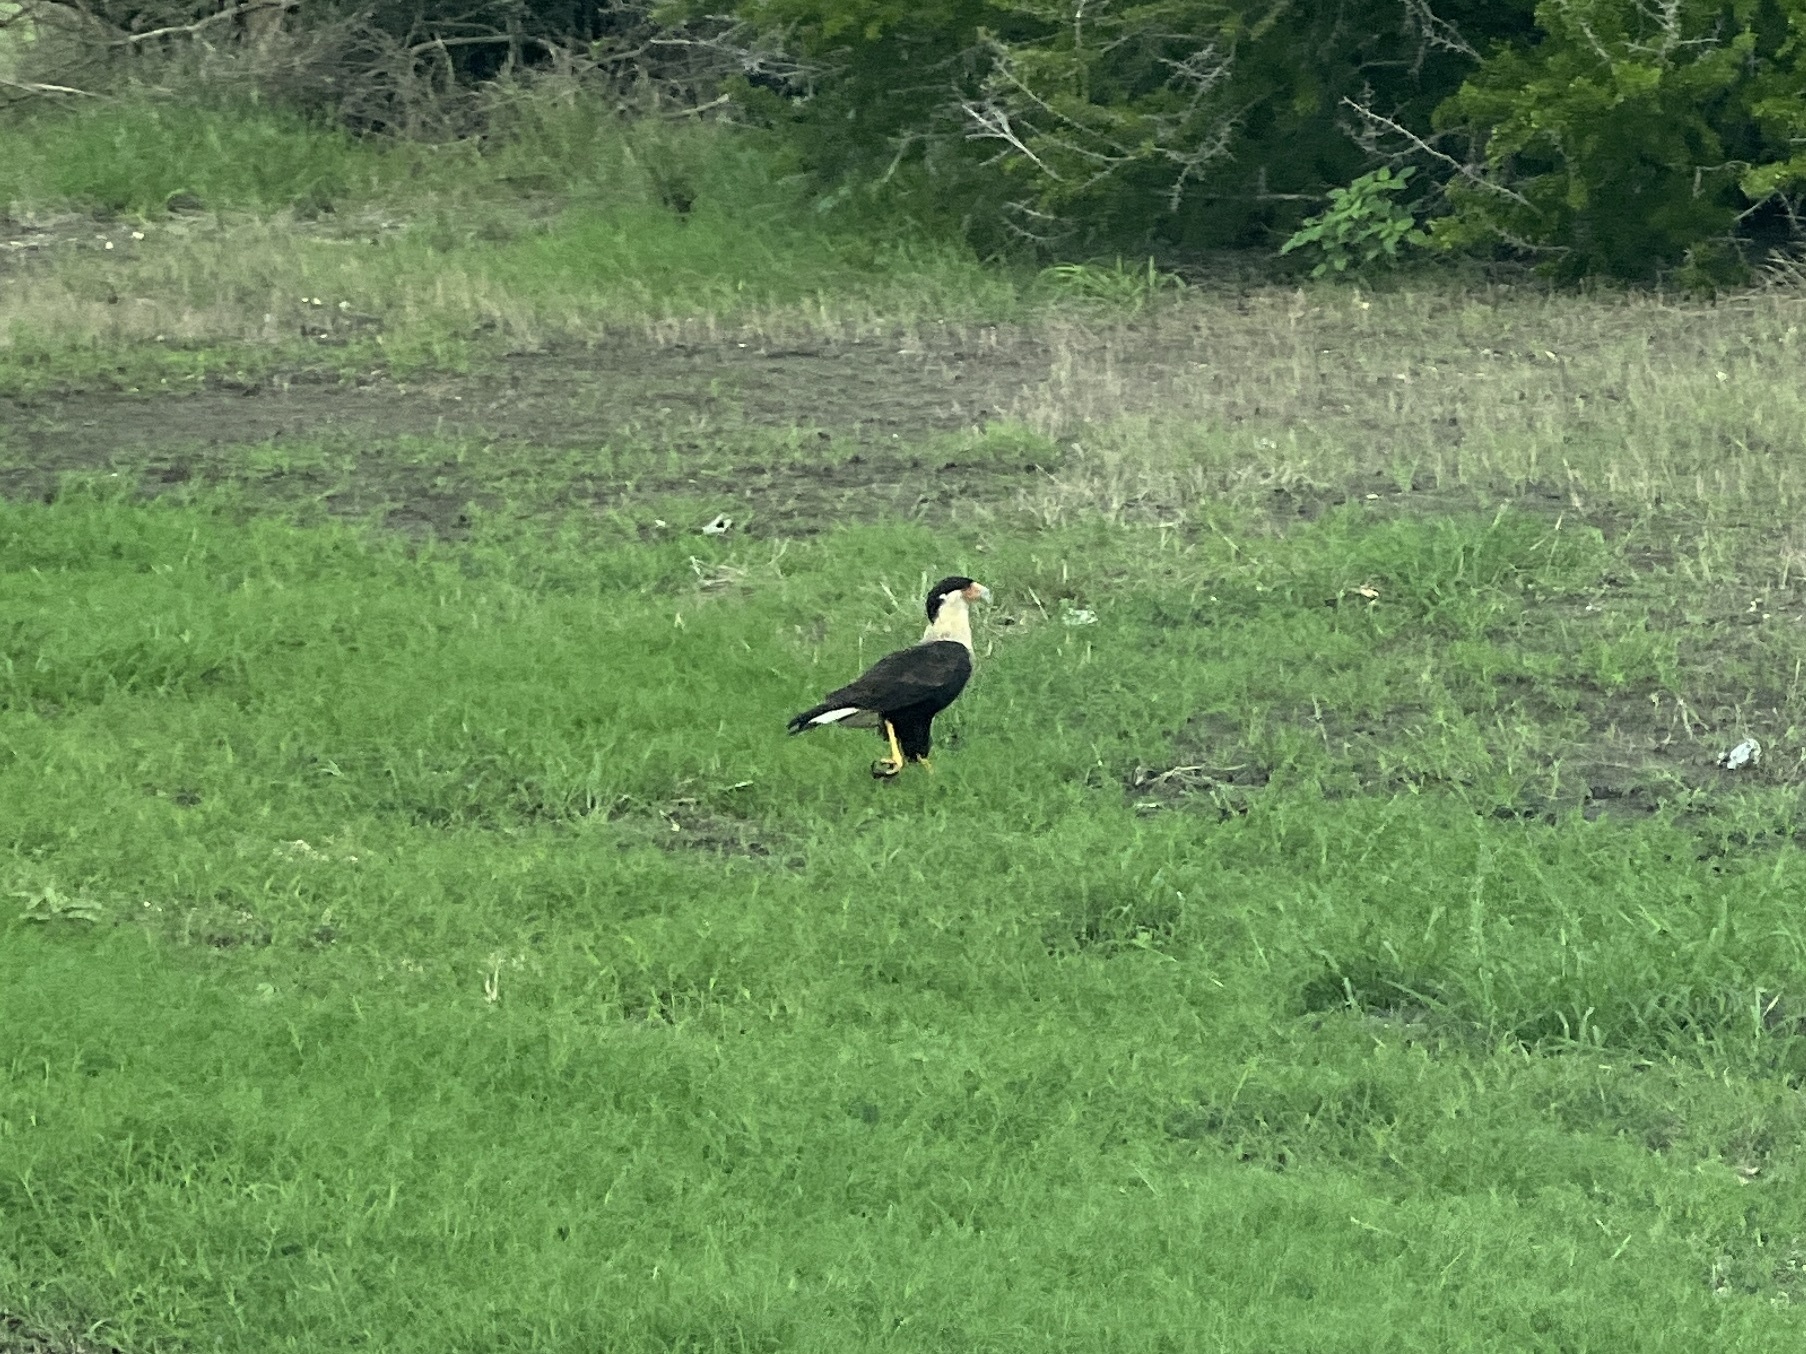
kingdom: Animalia
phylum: Chordata
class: Aves
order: Falconiformes
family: Falconidae
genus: Caracara
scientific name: Caracara plancus
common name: Southern caracara
